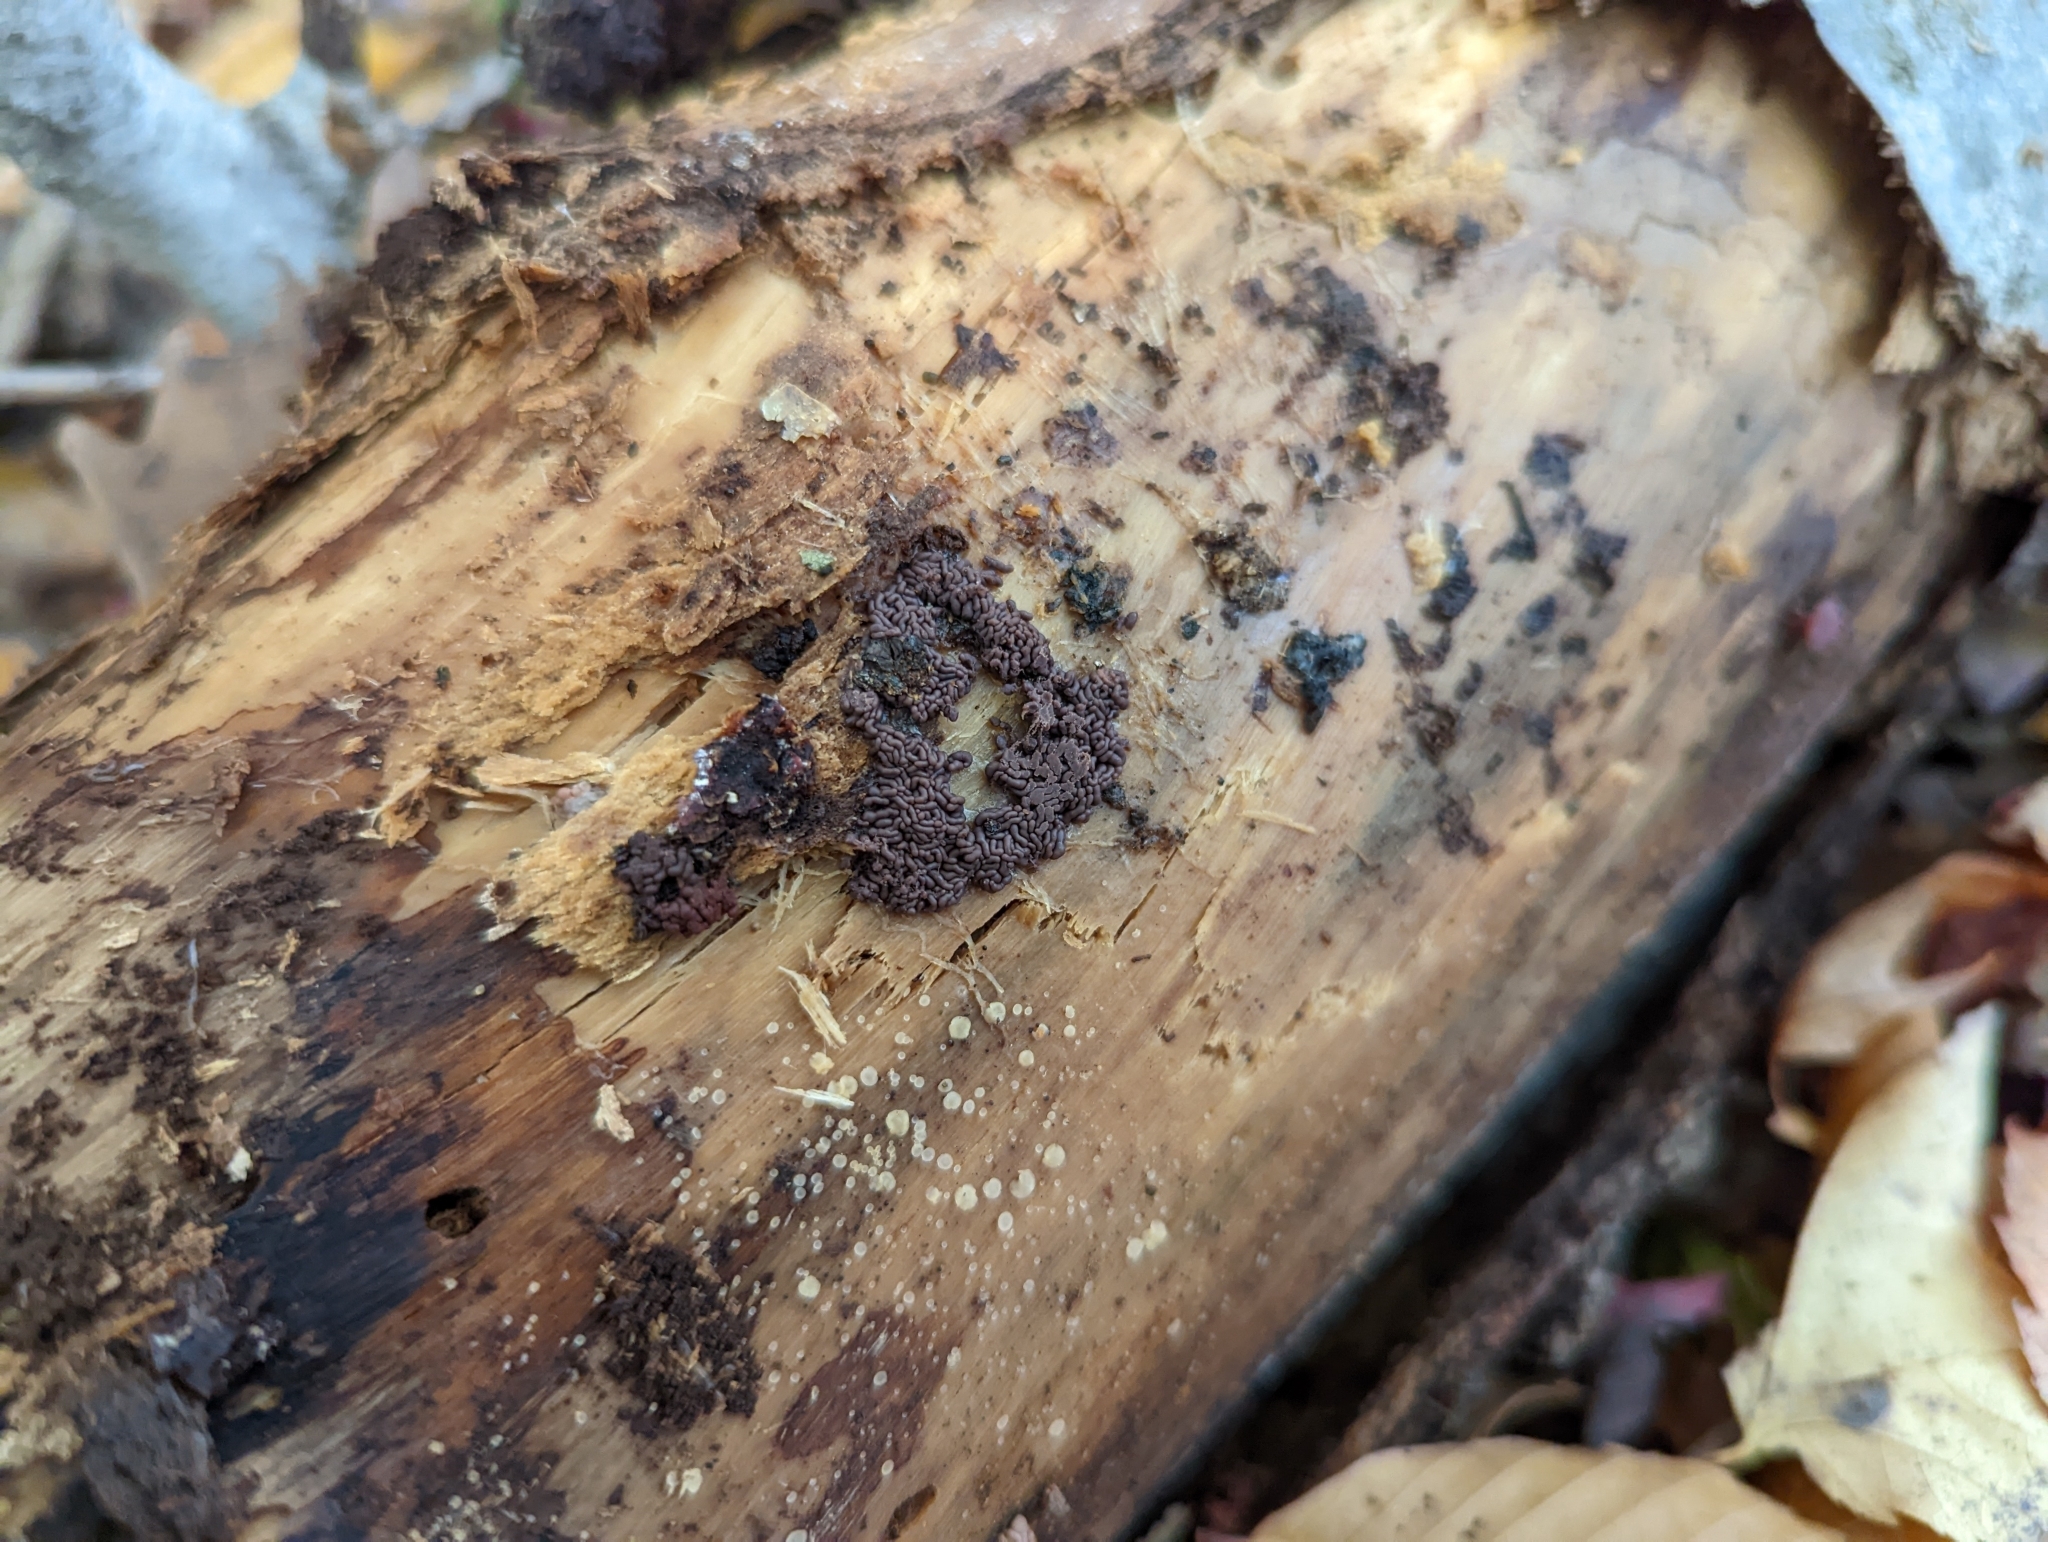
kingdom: Protozoa
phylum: Mycetozoa
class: Myxomycetes
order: Trichiales
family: Arcyriaceae
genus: Arcyria
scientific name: Arcyria stipata
